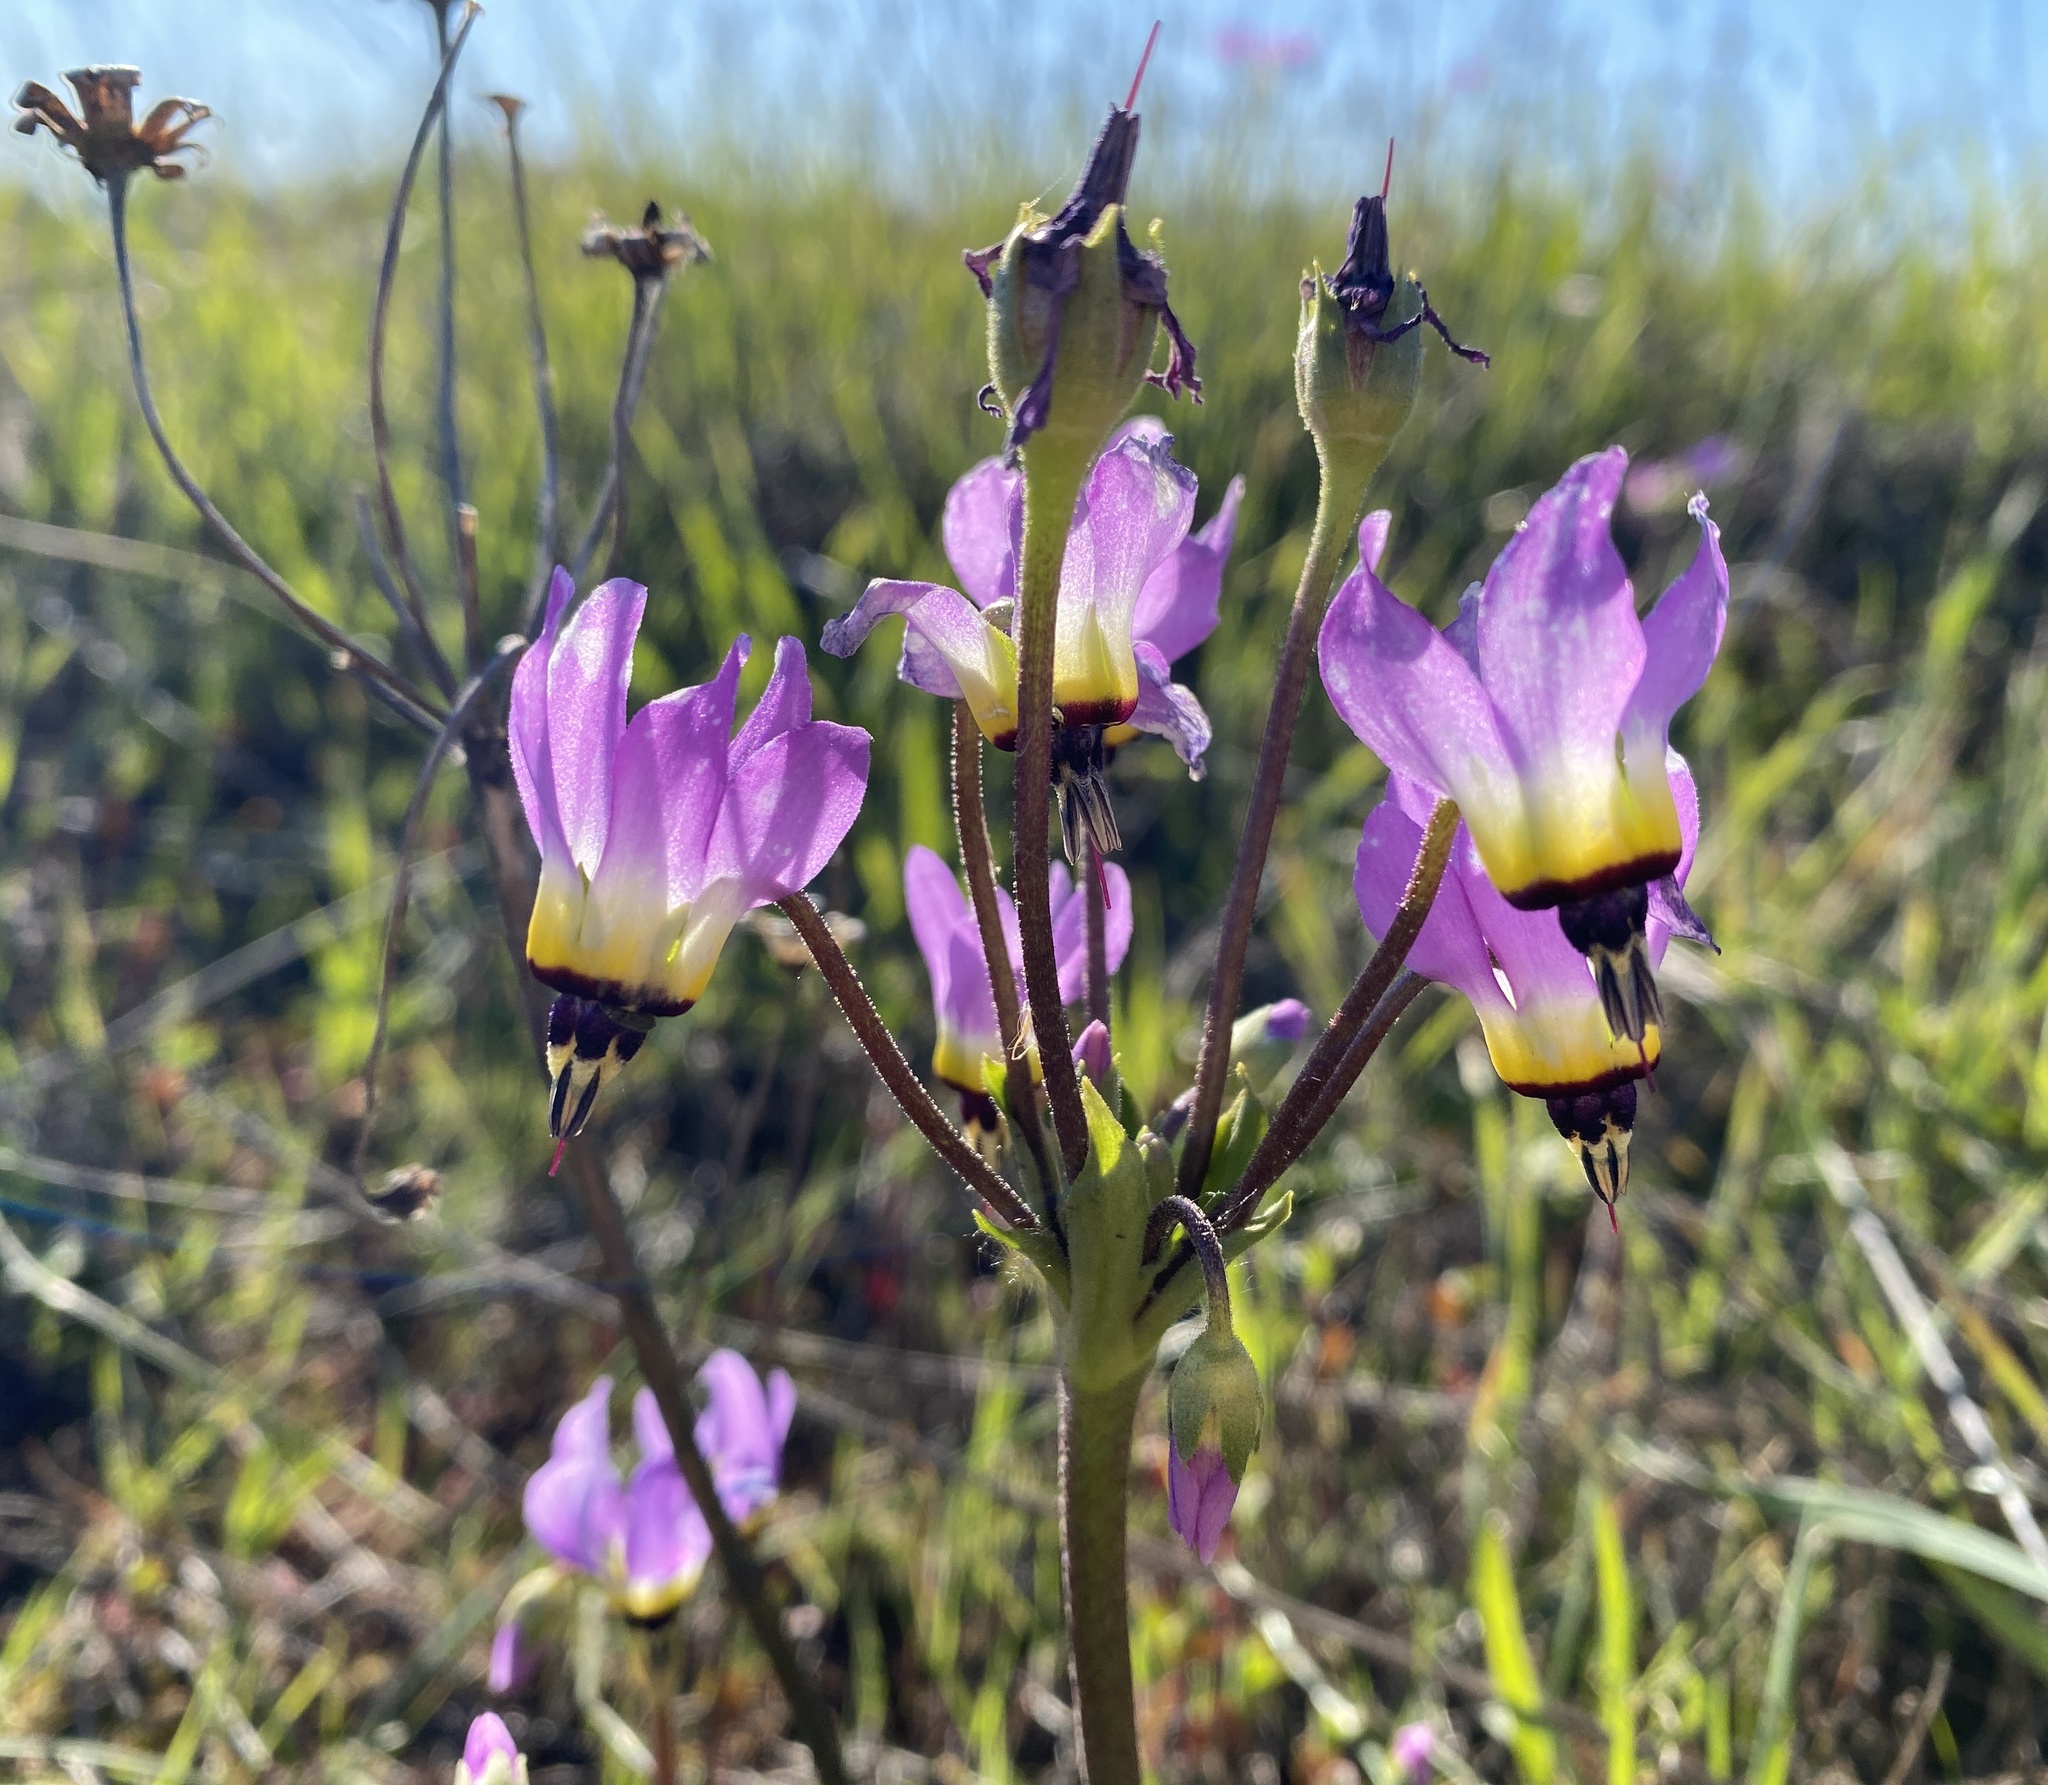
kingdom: Plantae
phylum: Tracheophyta
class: Magnoliopsida
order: Ericales
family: Primulaceae
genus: Dodecatheon
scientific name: Dodecatheon clevelandii
